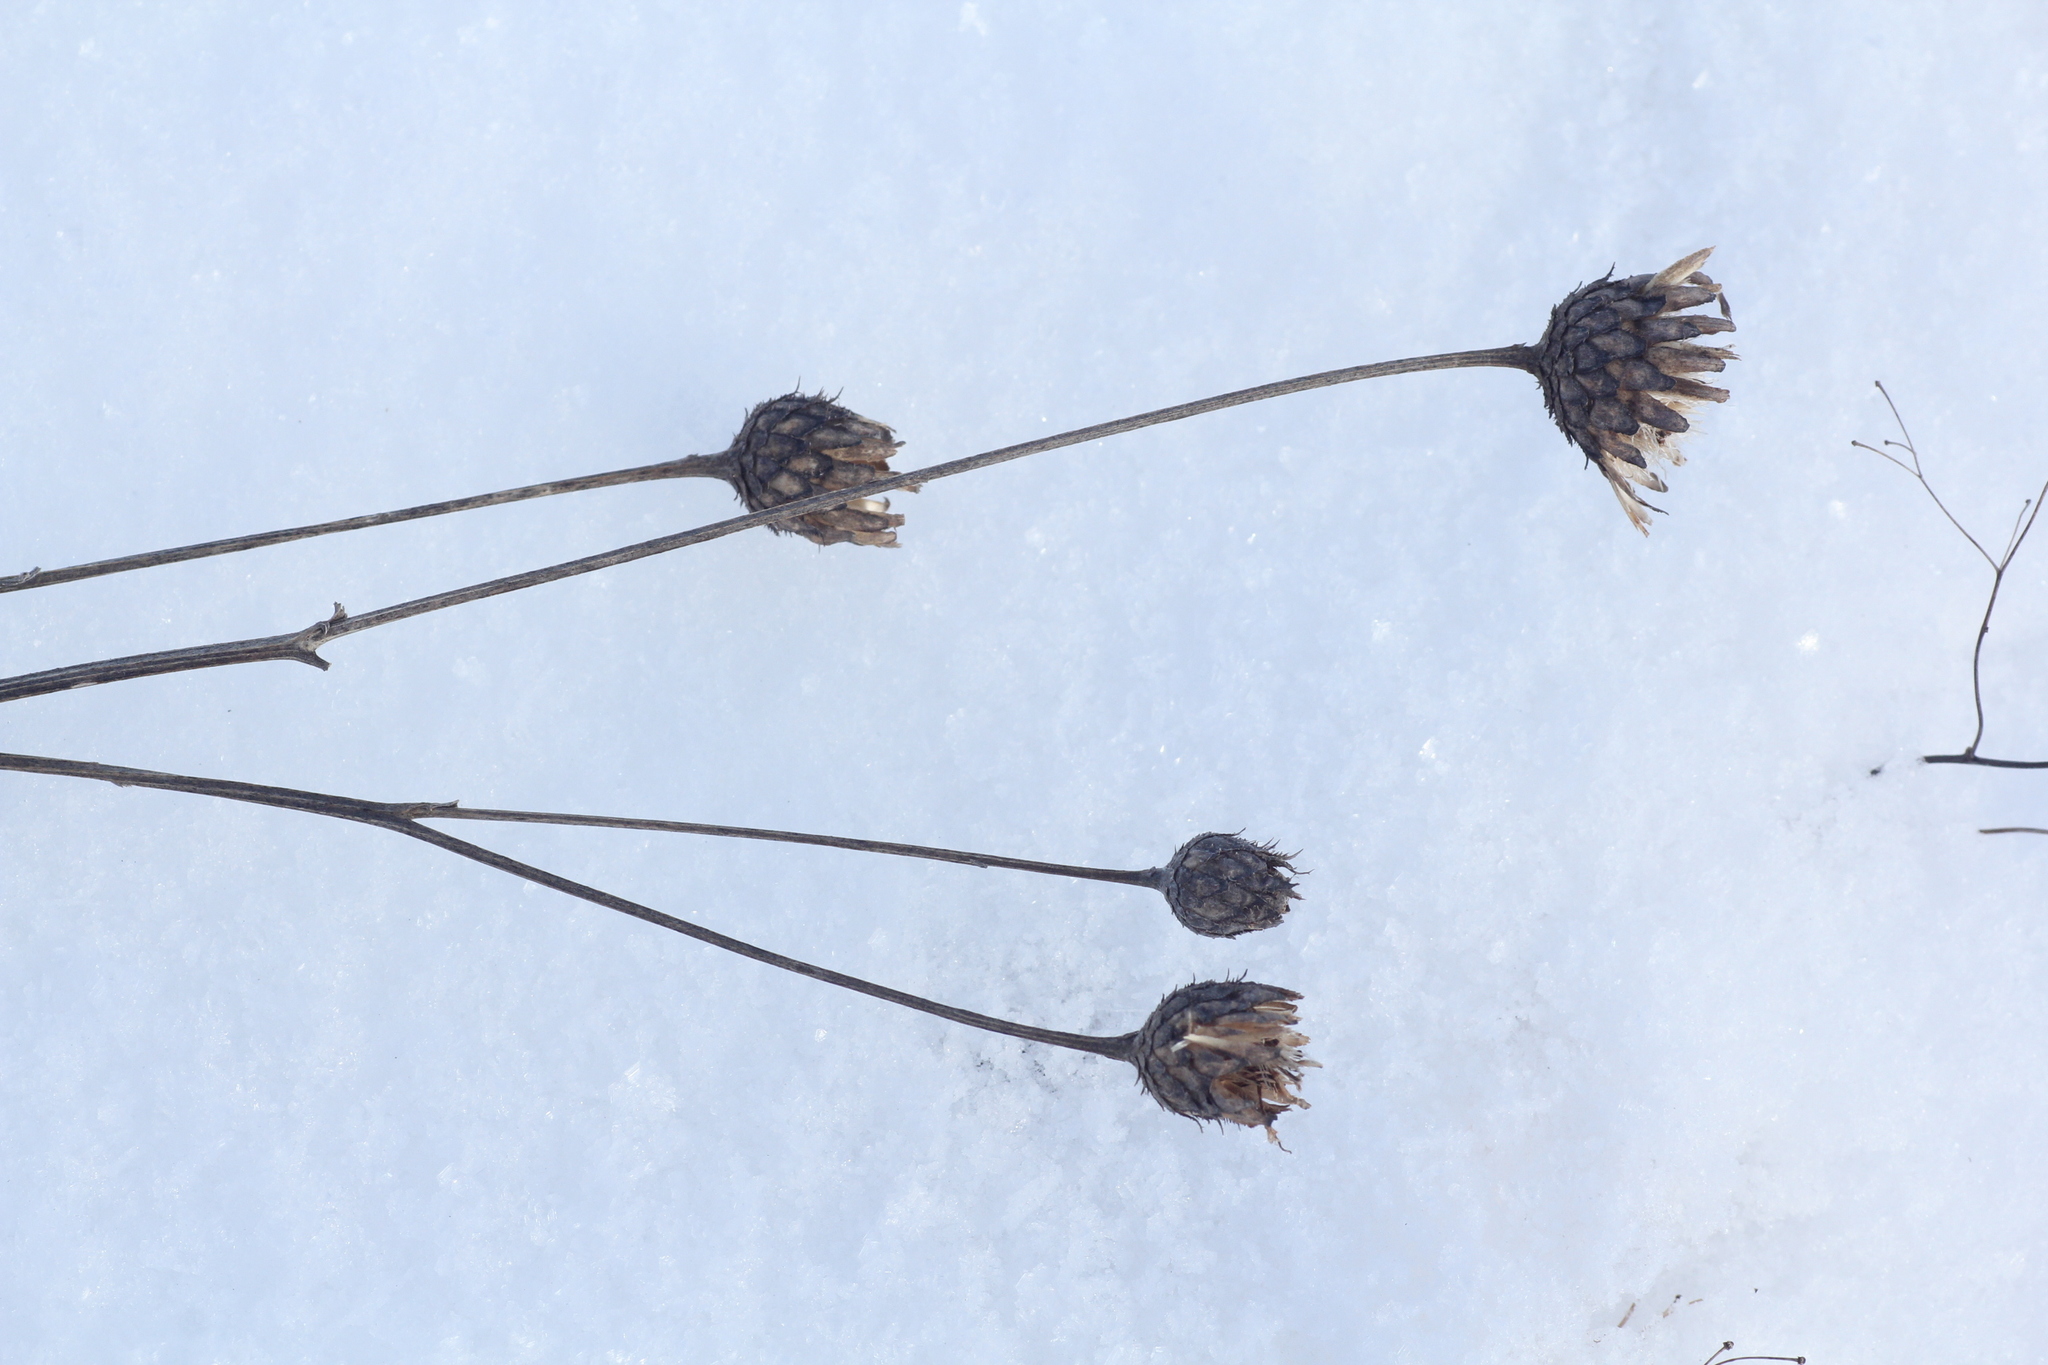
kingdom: Plantae
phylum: Tracheophyta
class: Magnoliopsida
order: Asterales
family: Asteraceae
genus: Centaurea
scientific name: Centaurea scabiosa
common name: Greater knapweed
